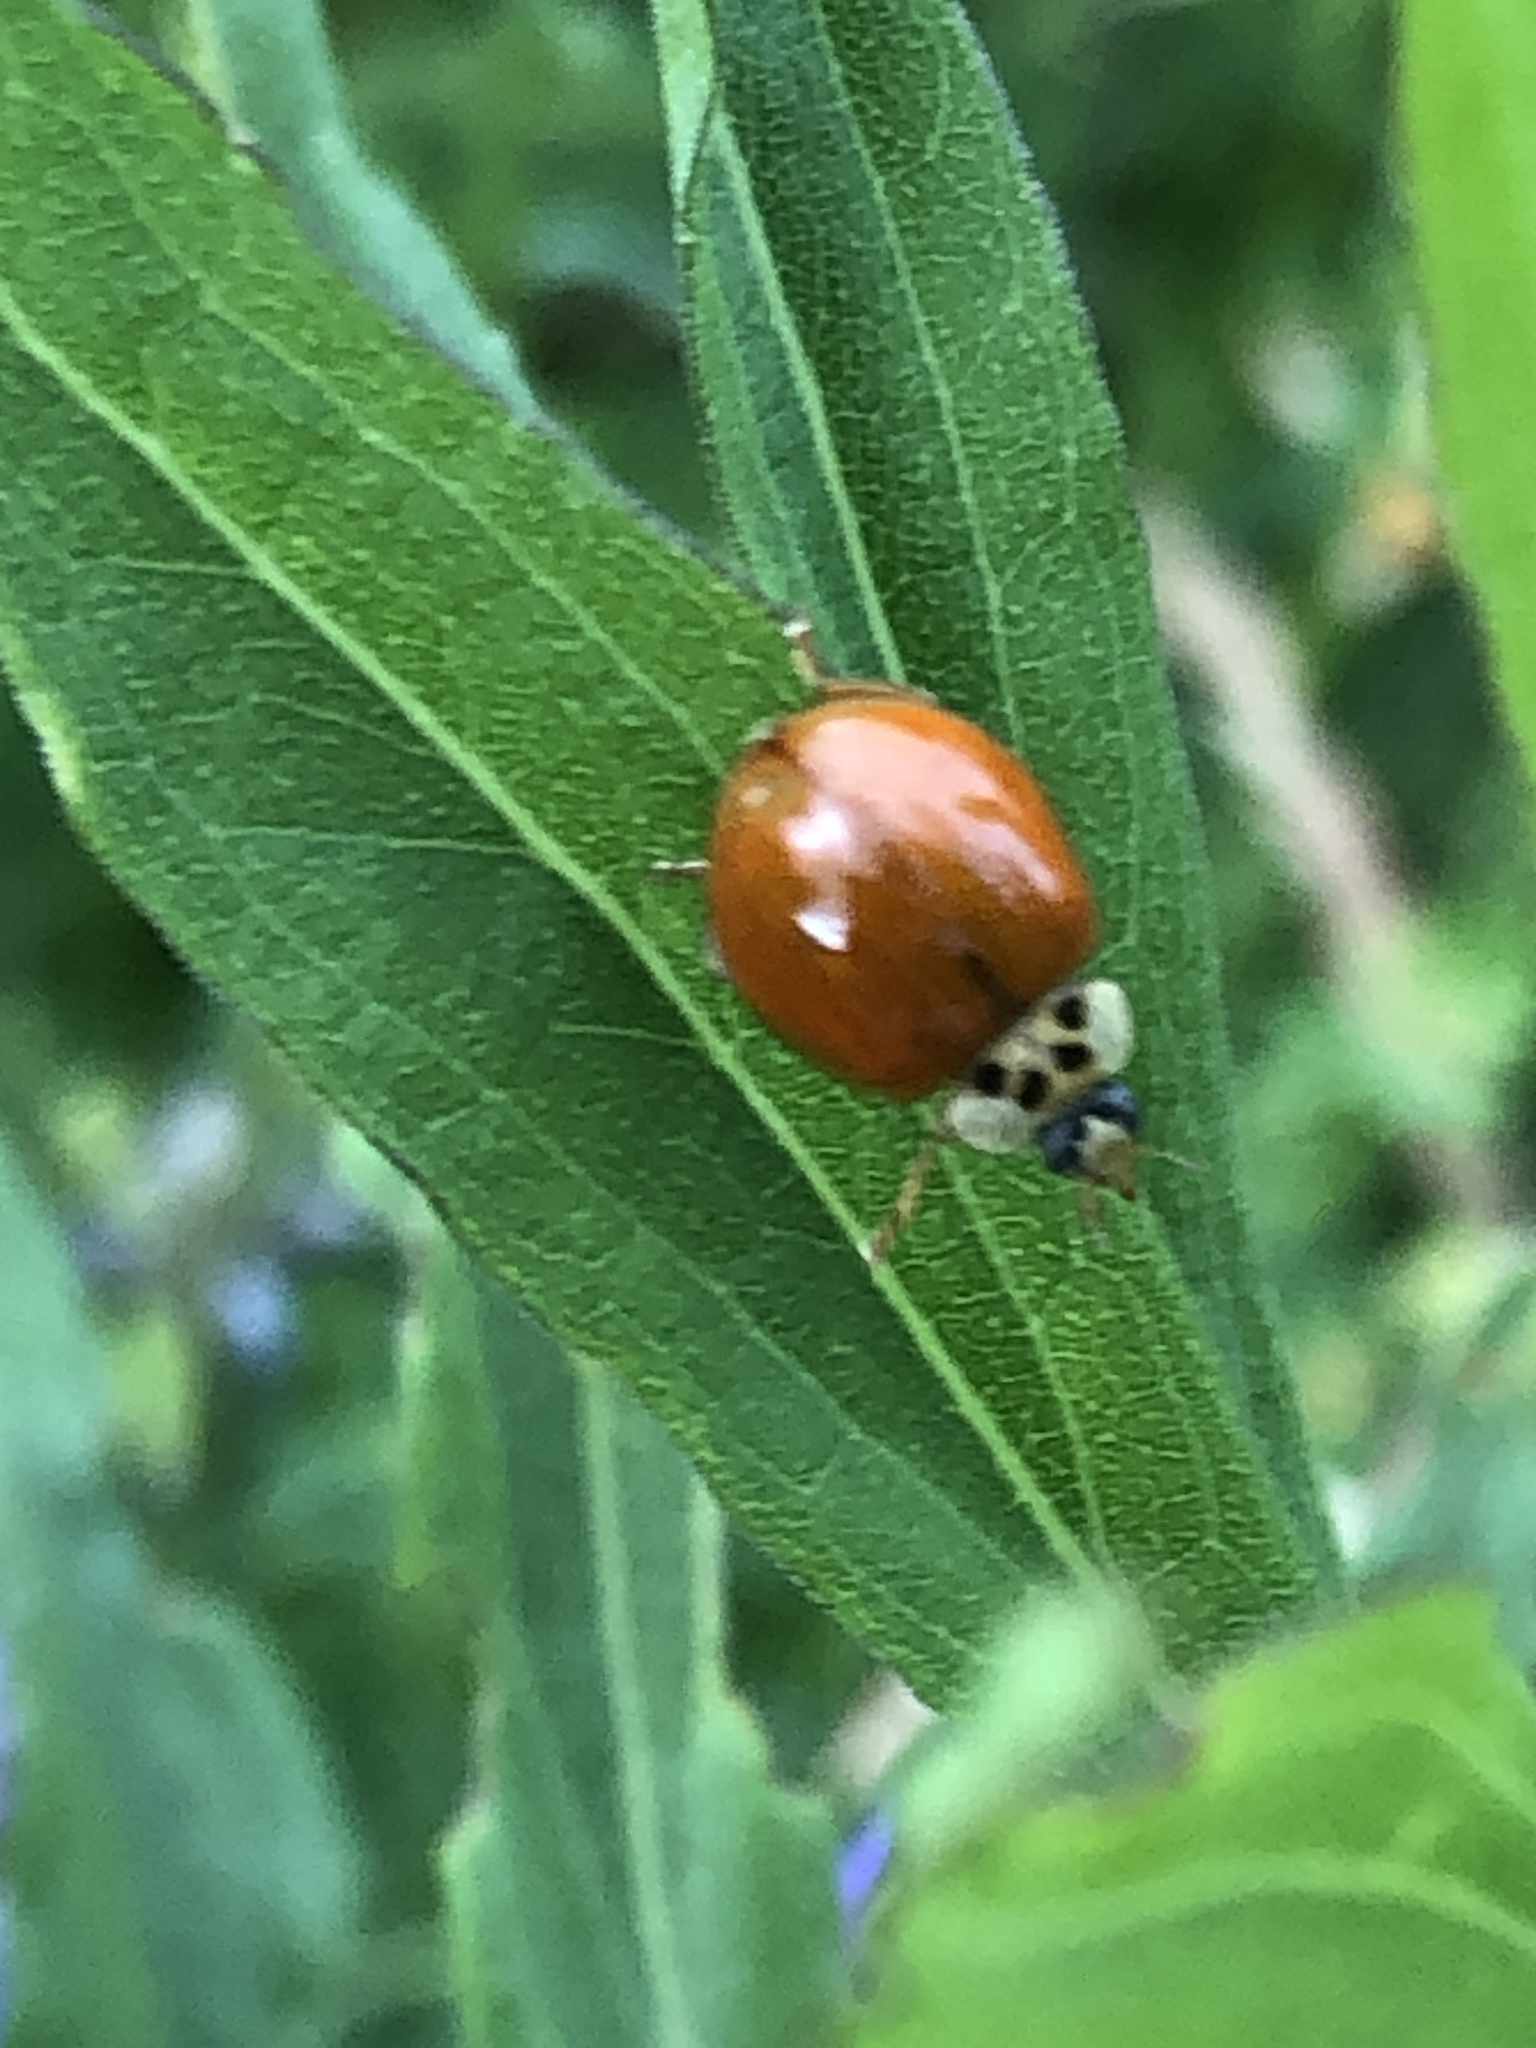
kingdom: Animalia
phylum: Arthropoda
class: Insecta
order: Coleoptera
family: Coccinellidae
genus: Harmonia
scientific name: Harmonia axyridis
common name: Harlequin ladybird
